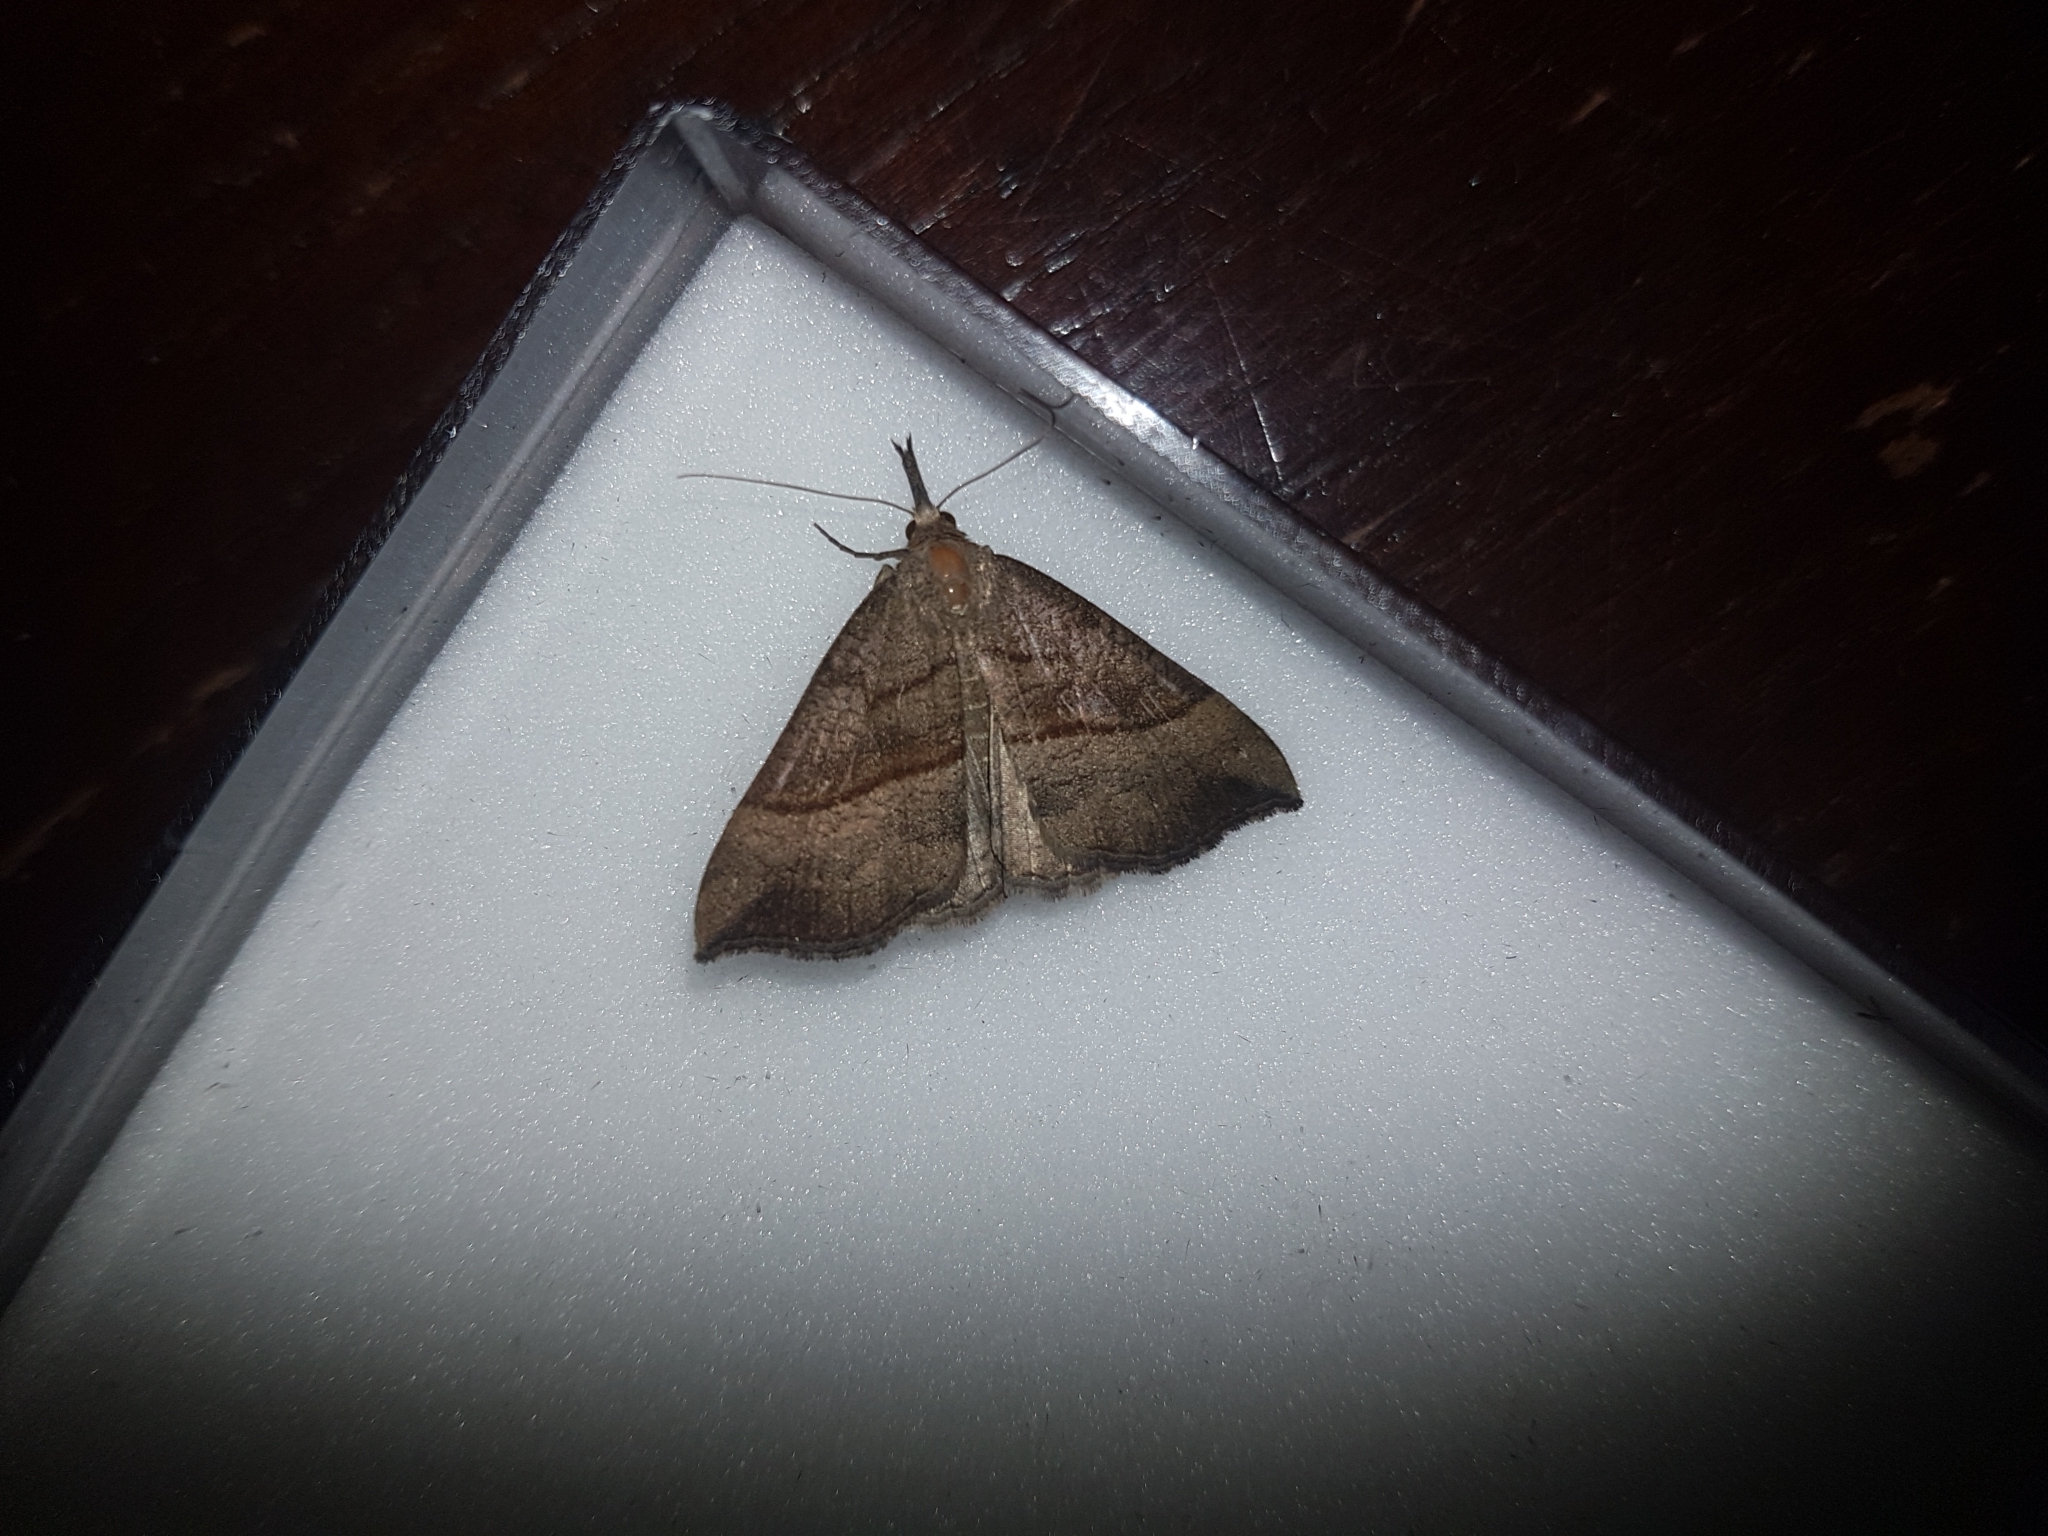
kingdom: Animalia
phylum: Arthropoda
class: Insecta
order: Lepidoptera
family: Erebidae
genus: Hypena
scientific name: Hypena proboscidalis
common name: Snout
